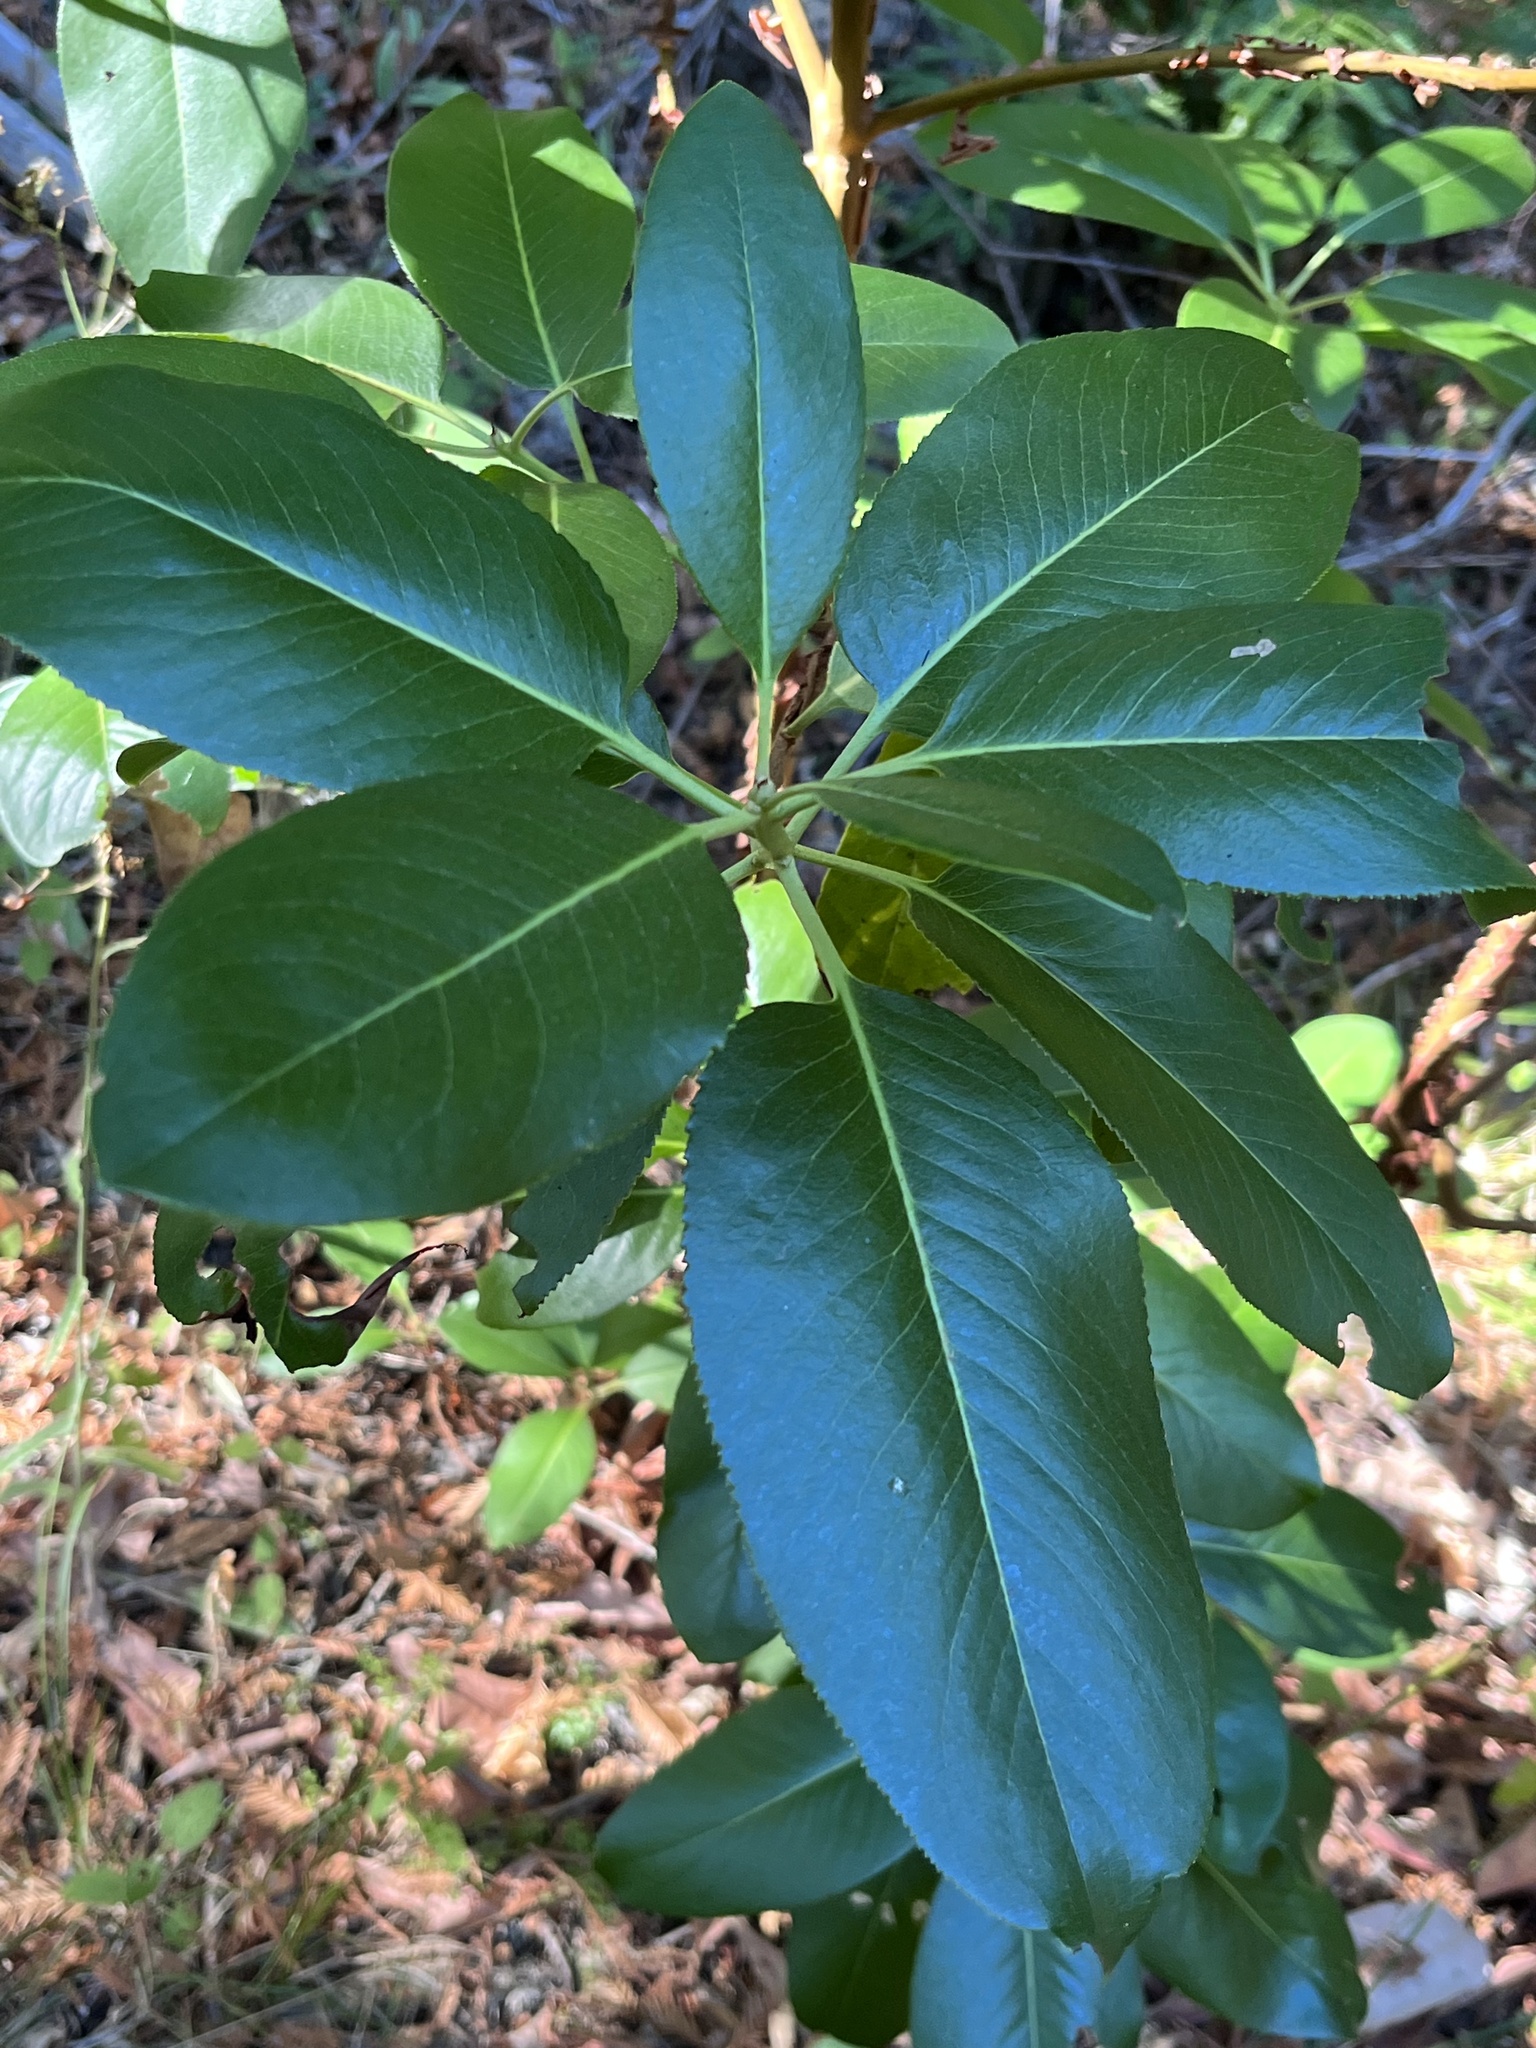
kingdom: Plantae
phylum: Tracheophyta
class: Magnoliopsida
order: Ericales
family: Ericaceae
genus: Arbutus
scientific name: Arbutus menziesii
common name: Pacific madrone
